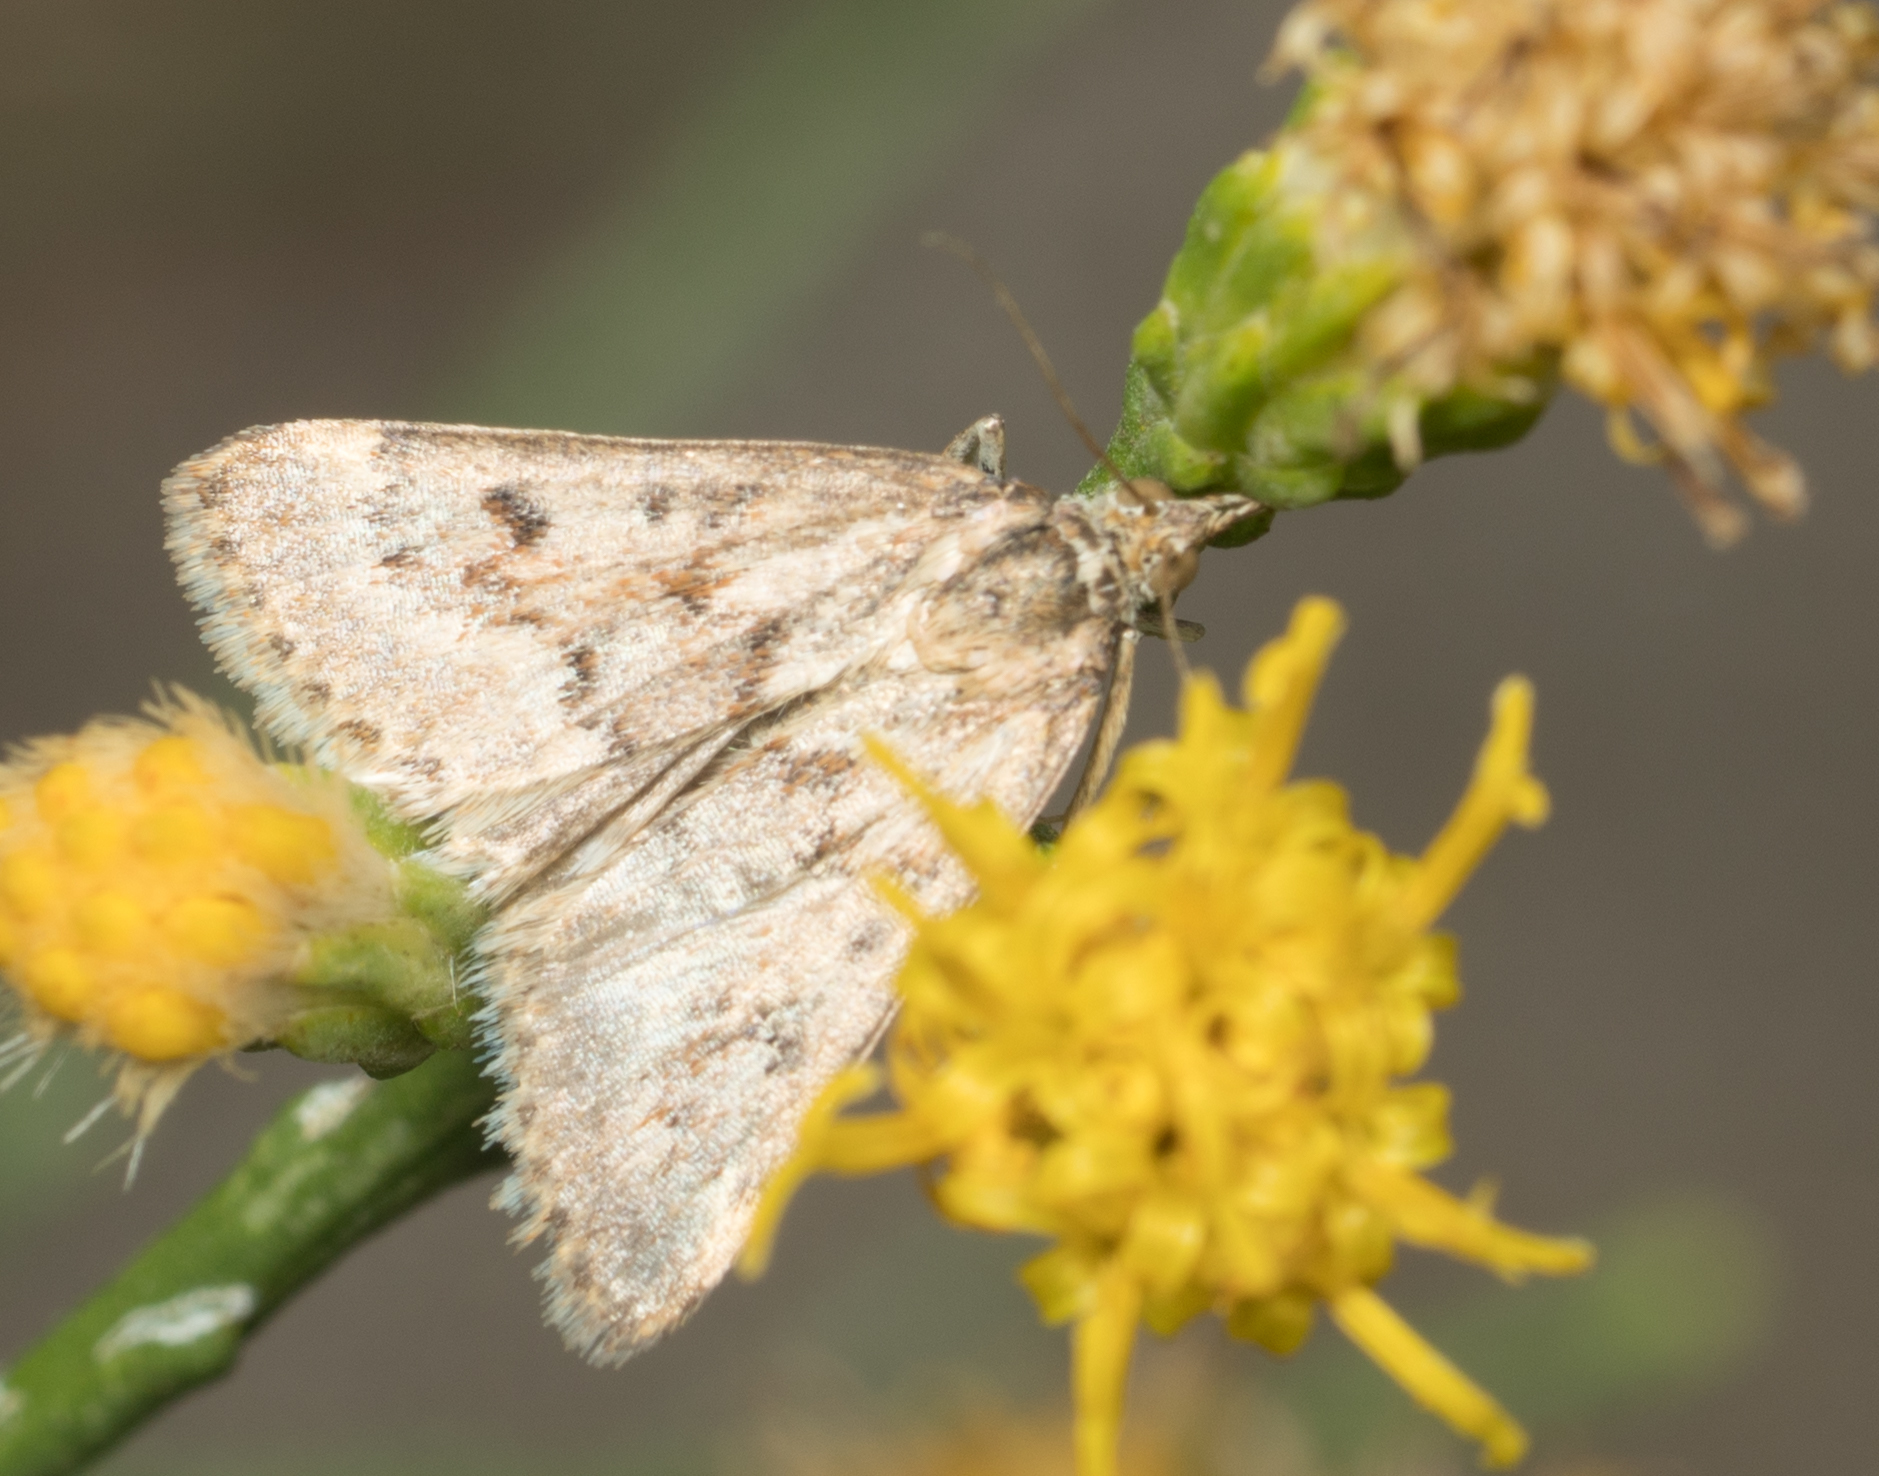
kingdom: Animalia
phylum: Arthropoda
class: Insecta
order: Lepidoptera
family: Crambidae
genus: Achyra
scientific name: Achyra occidentalis
